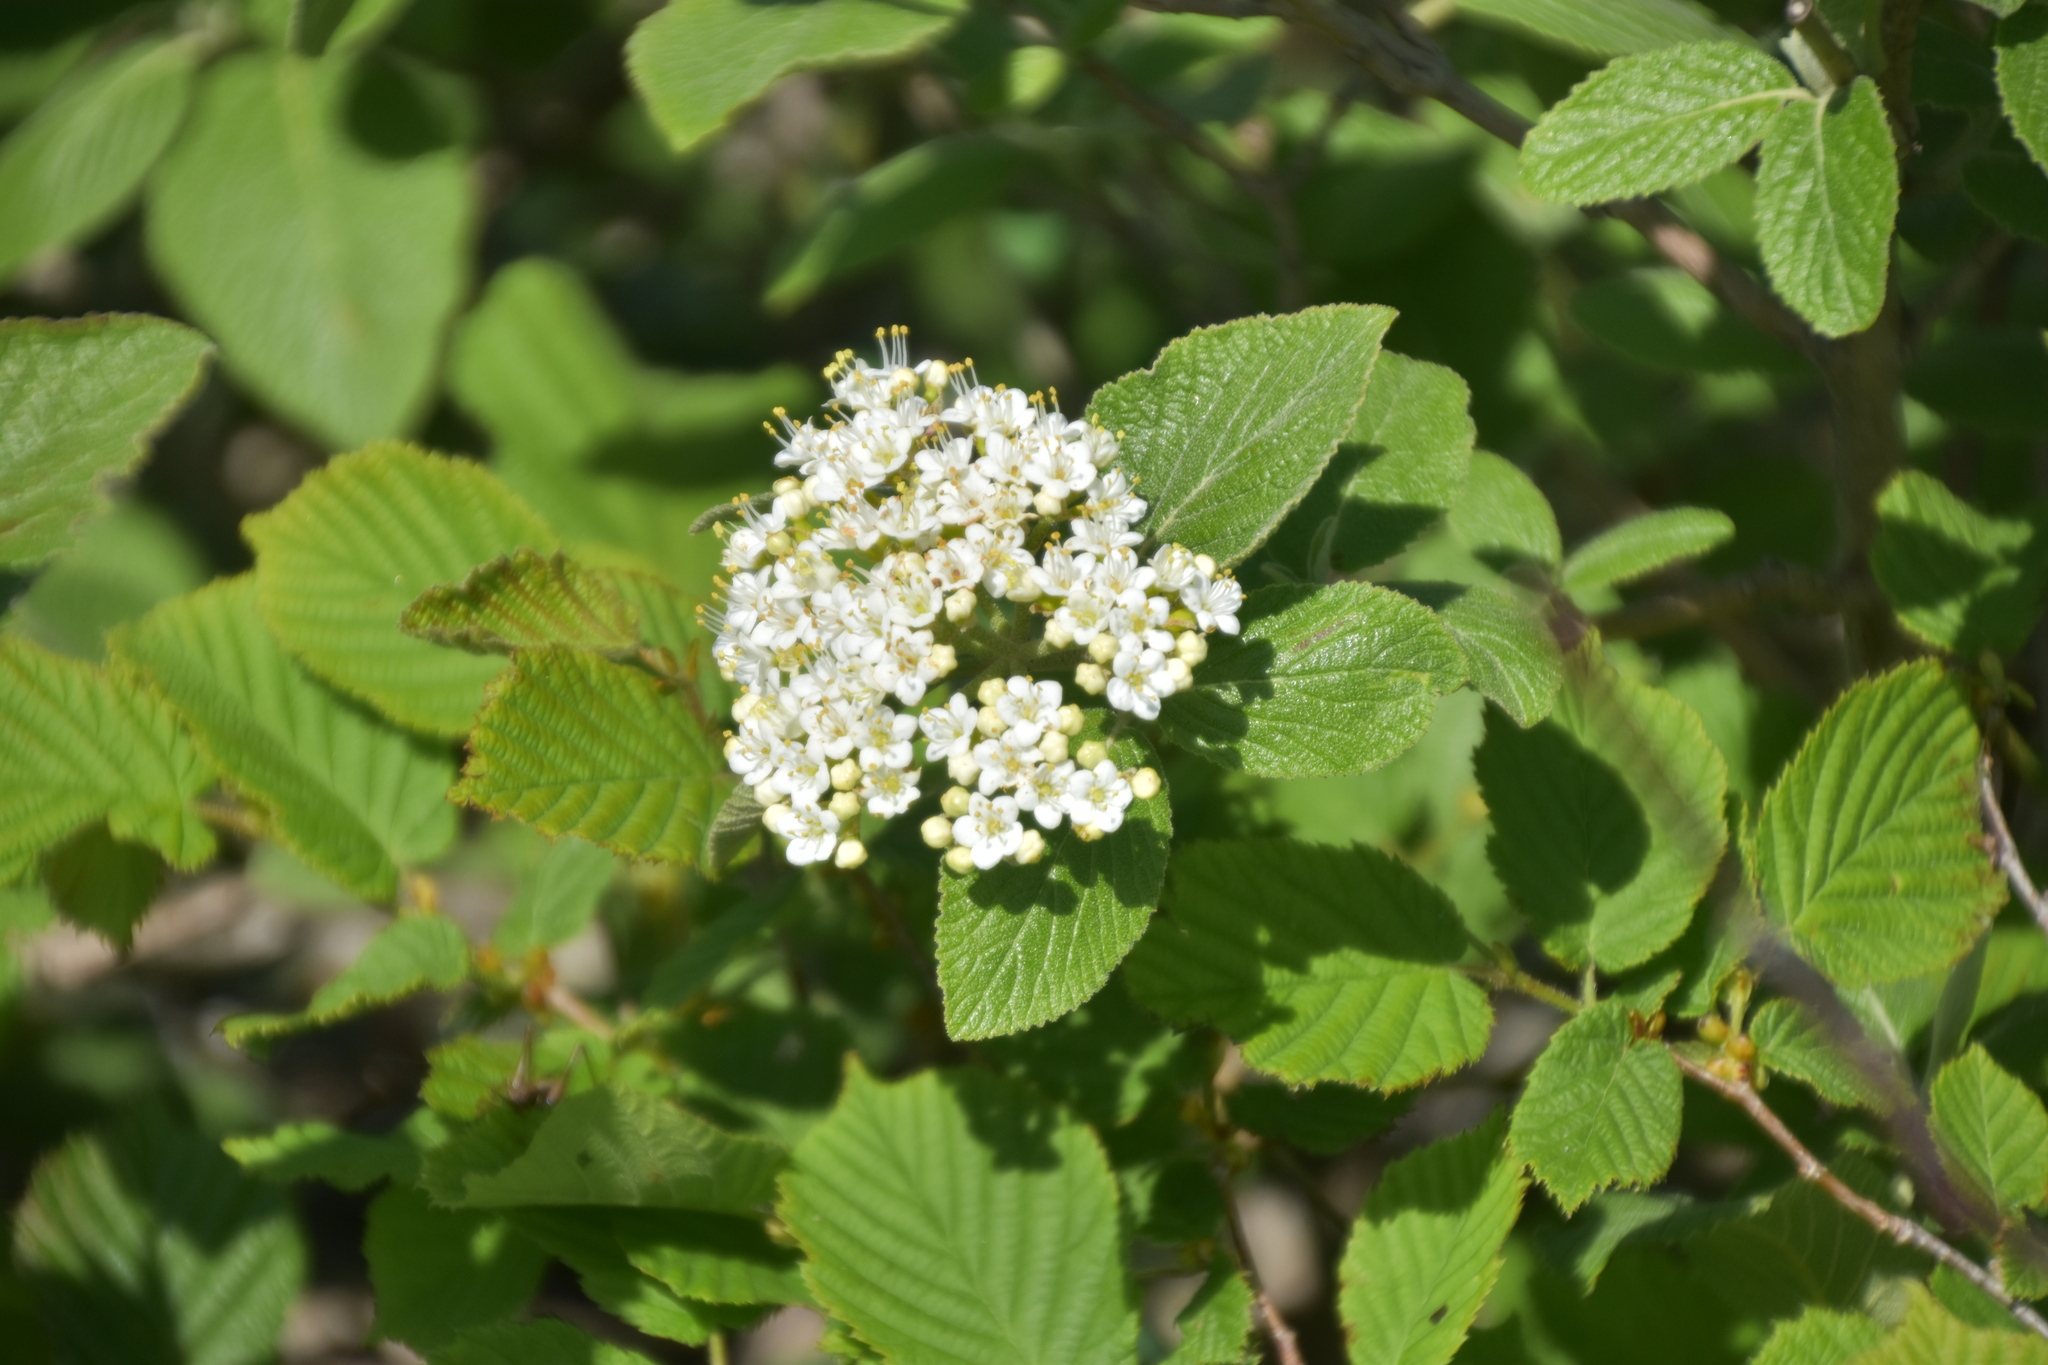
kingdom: Plantae
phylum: Tracheophyta
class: Magnoliopsida
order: Dipsacales
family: Viburnaceae
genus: Viburnum
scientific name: Viburnum lantana
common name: Wayfaring tree
